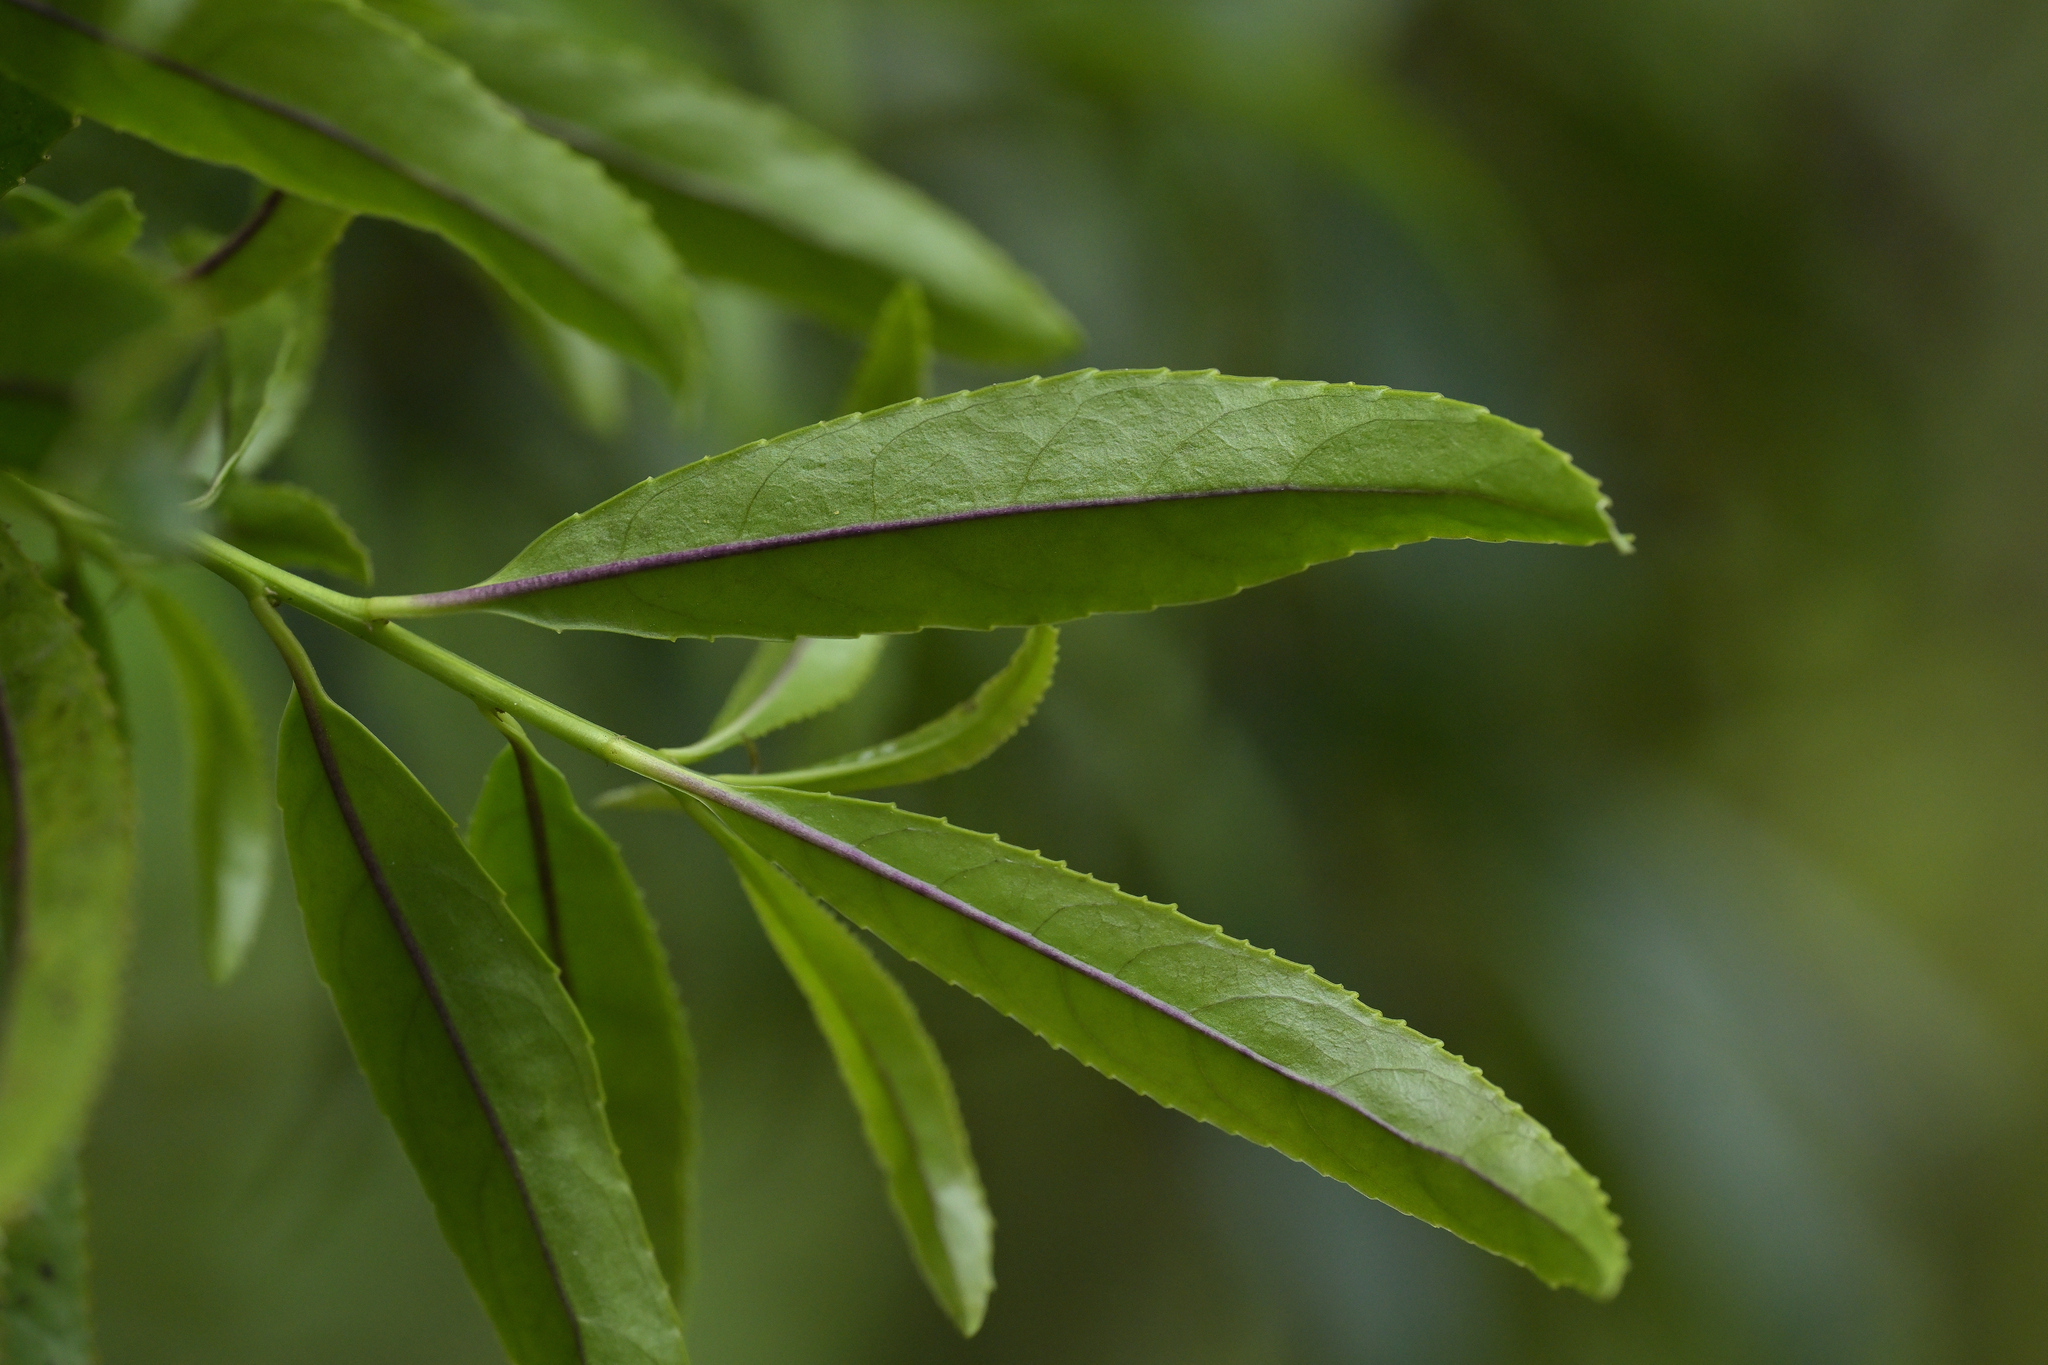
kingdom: Plantae
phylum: Tracheophyta
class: Magnoliopsida
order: Malpighiales
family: Violaceae
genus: Melicytus
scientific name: Melicytus lanceolatus
